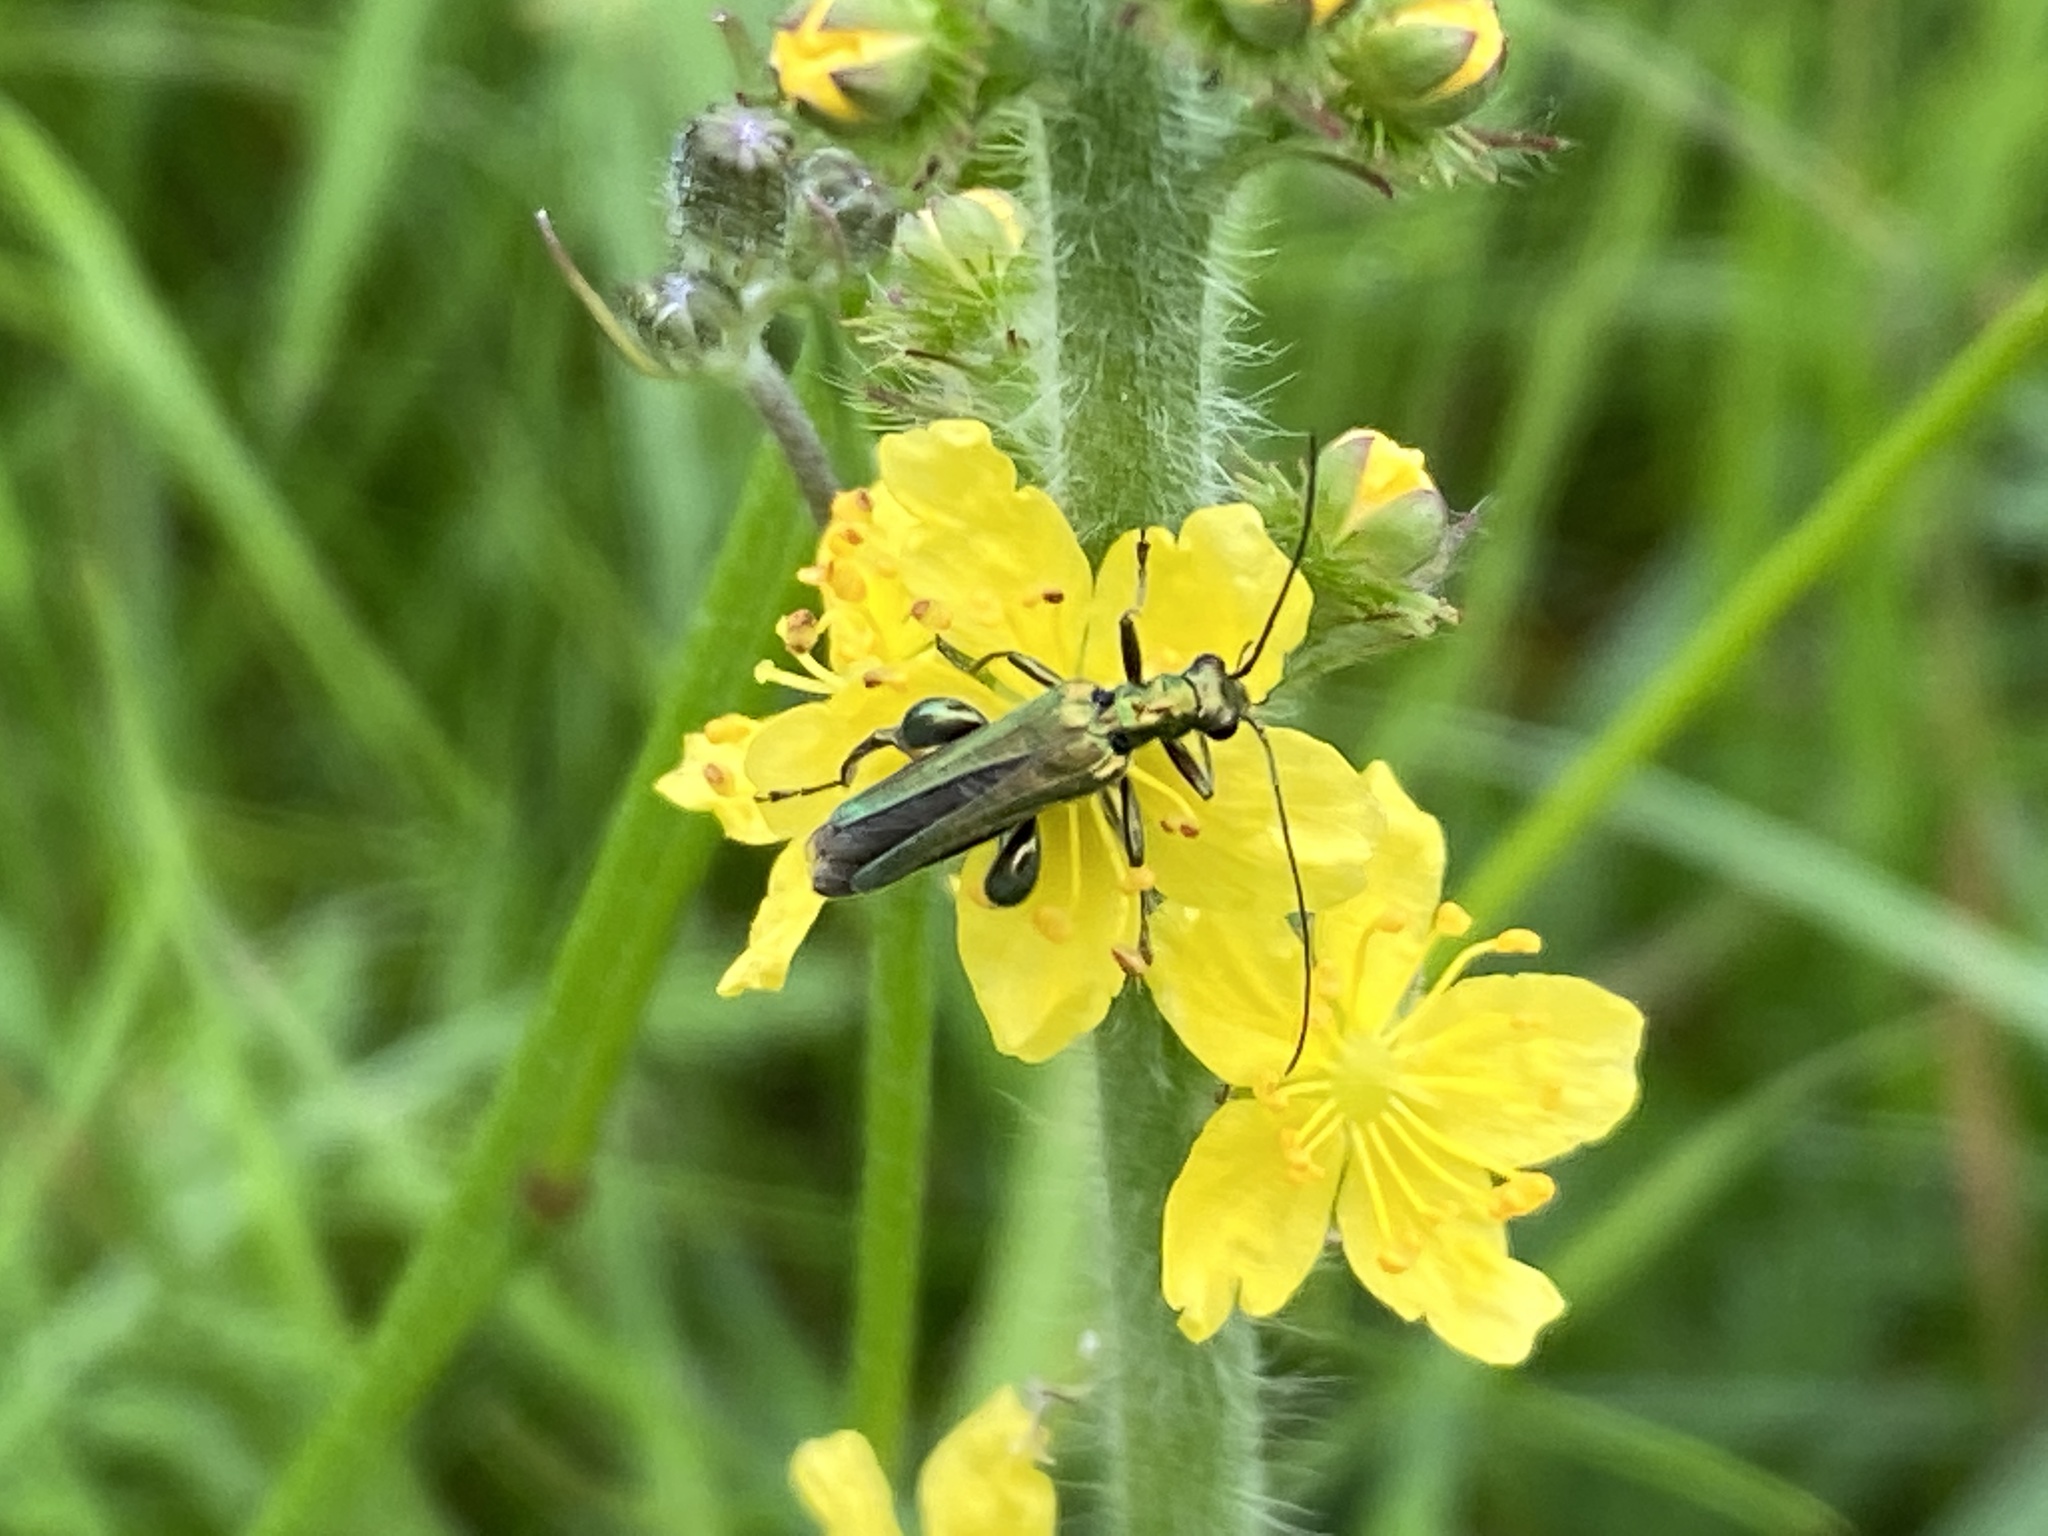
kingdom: Animalia
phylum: Arthropoda
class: Insecta
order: Coleoptera
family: Oedemeridae
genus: Oedemera
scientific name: Oedemera nobilis
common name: Swollen-thighed beetle
